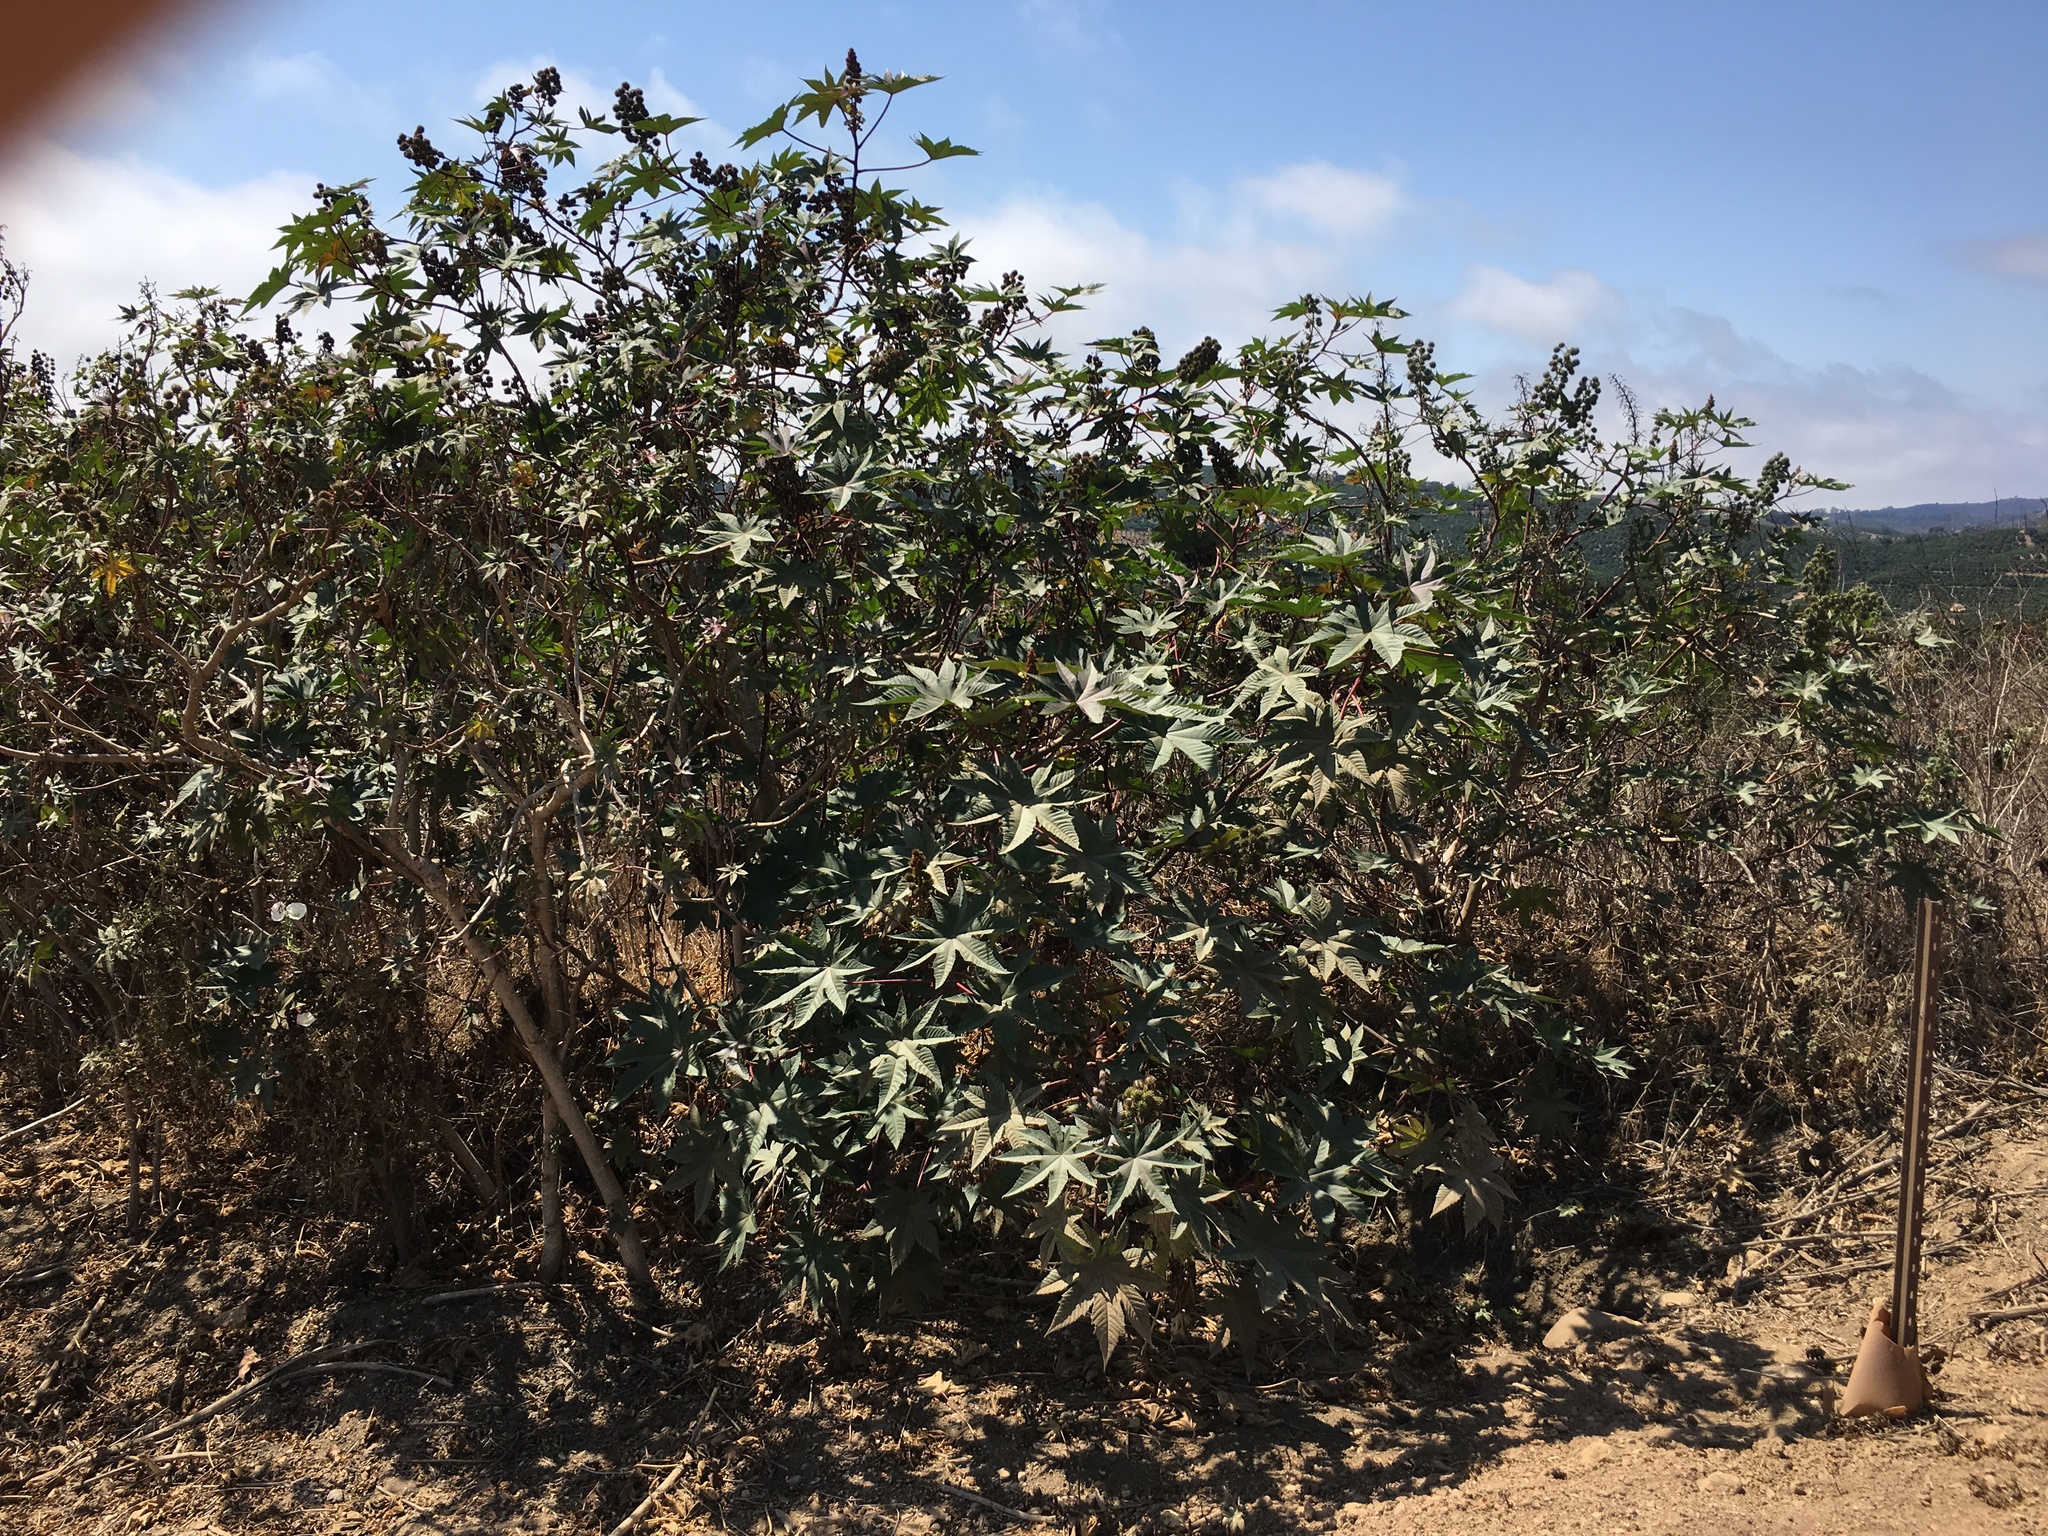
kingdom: Plantae
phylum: Tracheophyta
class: Magnoliopsida
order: Malpighiales
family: Euphorbiaceae
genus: Ricinus
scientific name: Ricinus communis
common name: Castor-oil-plant
